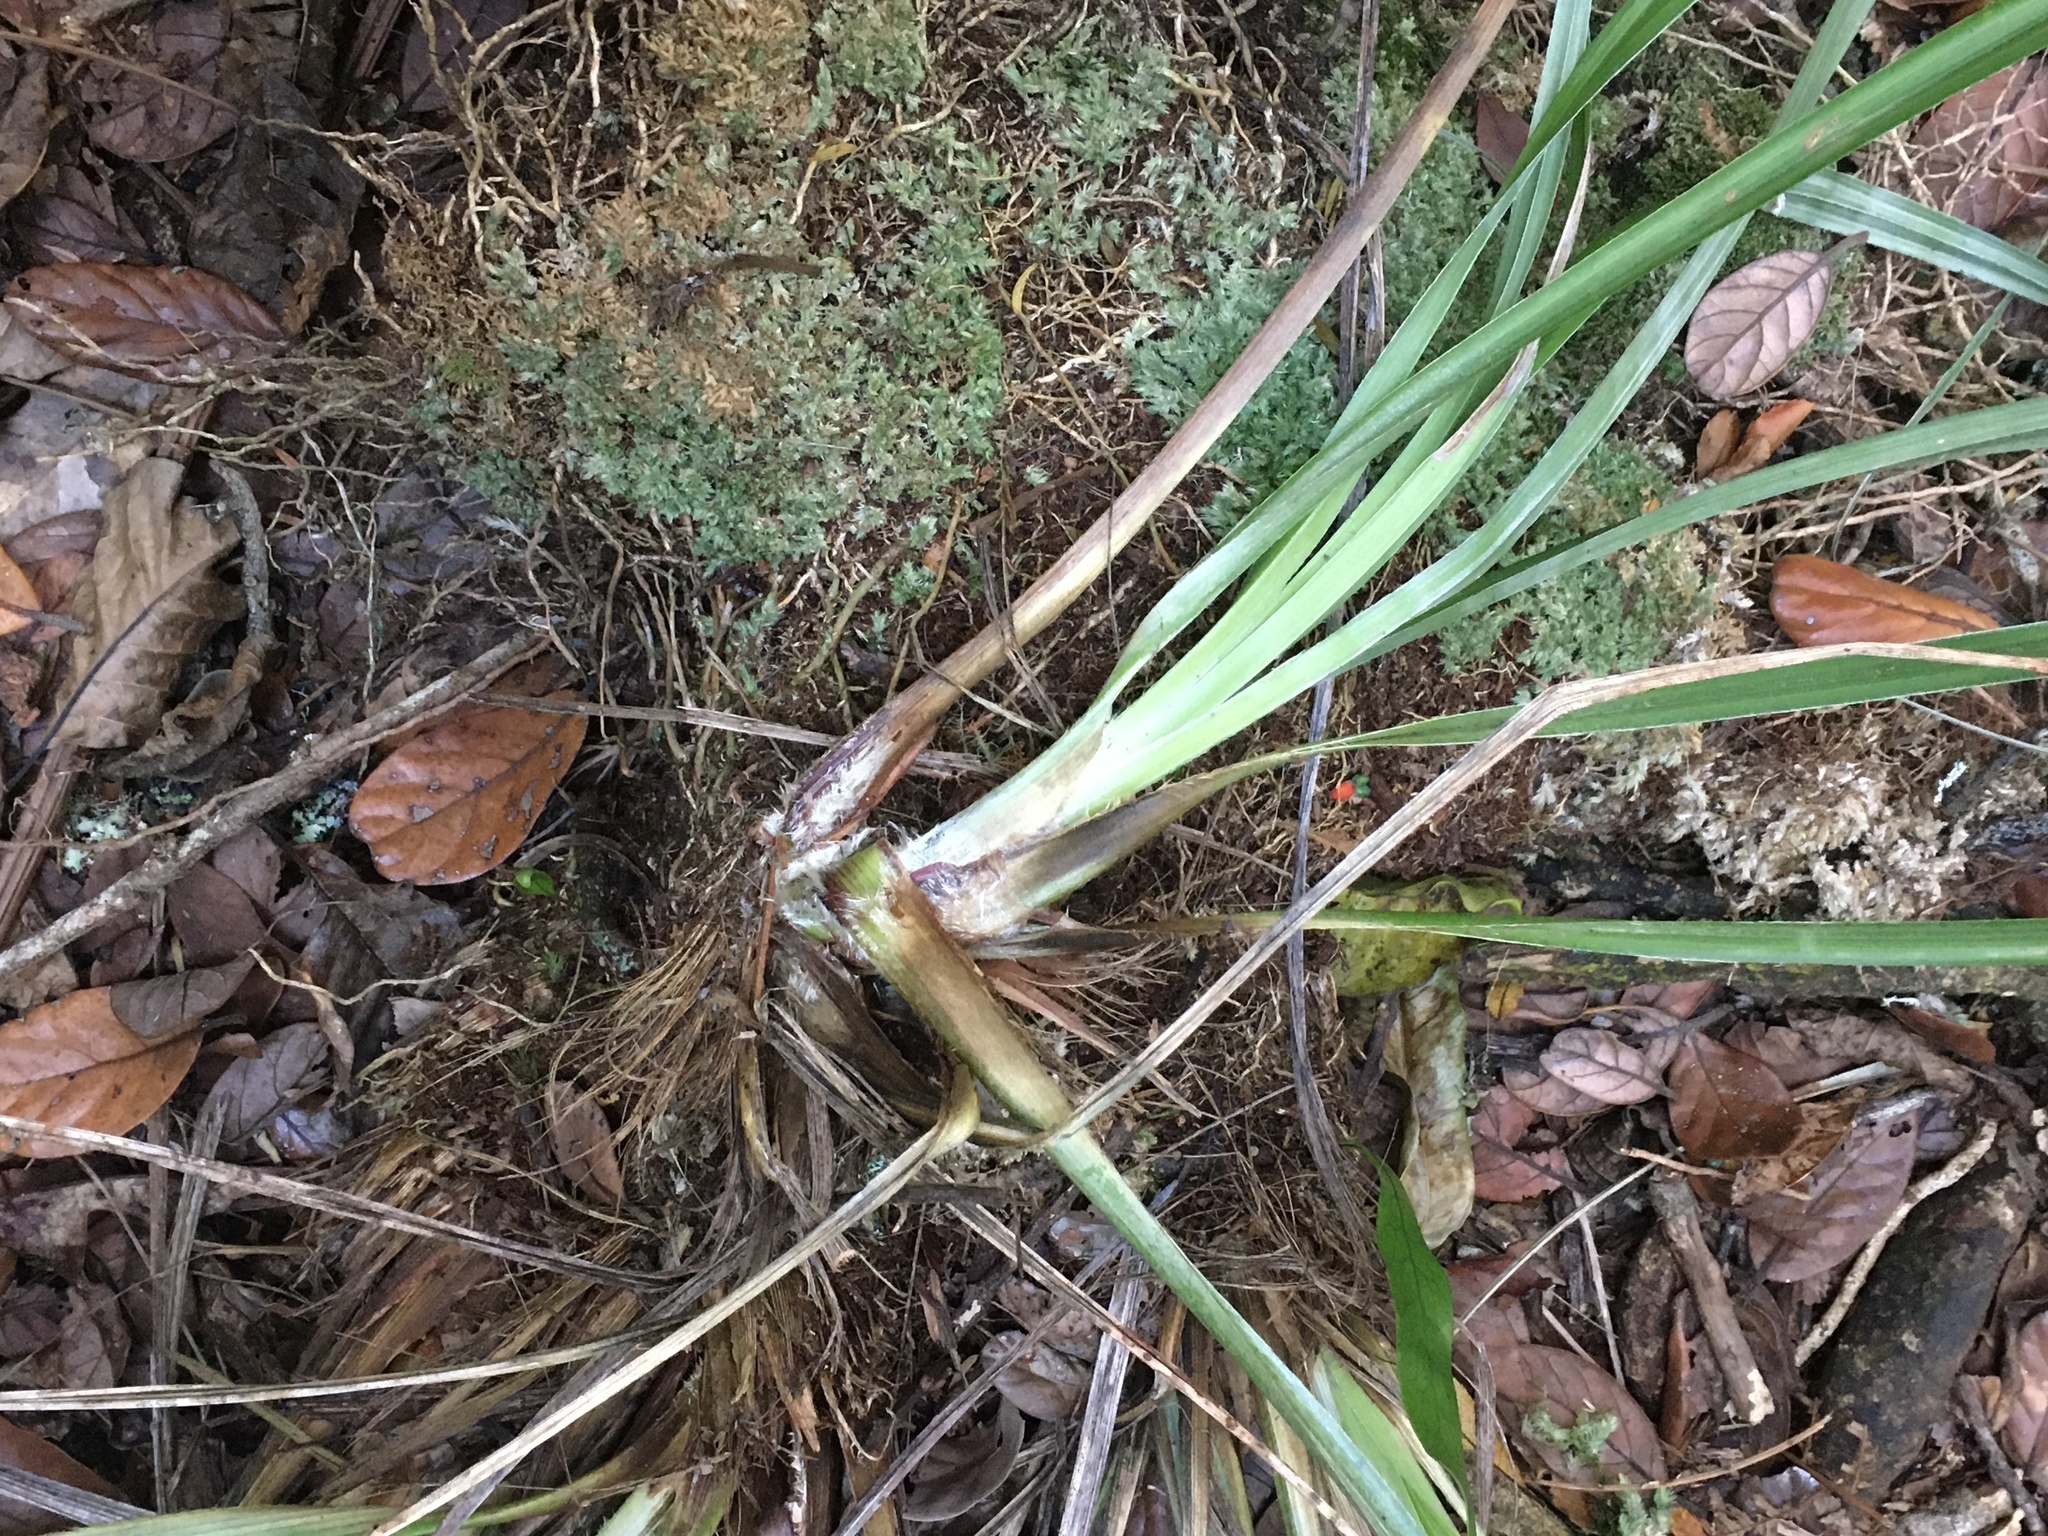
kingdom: Plantae
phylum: Tracheophyta
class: Liliopsida
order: Asparagales
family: Asteliaceae
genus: Astelia
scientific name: Astelia solandri
